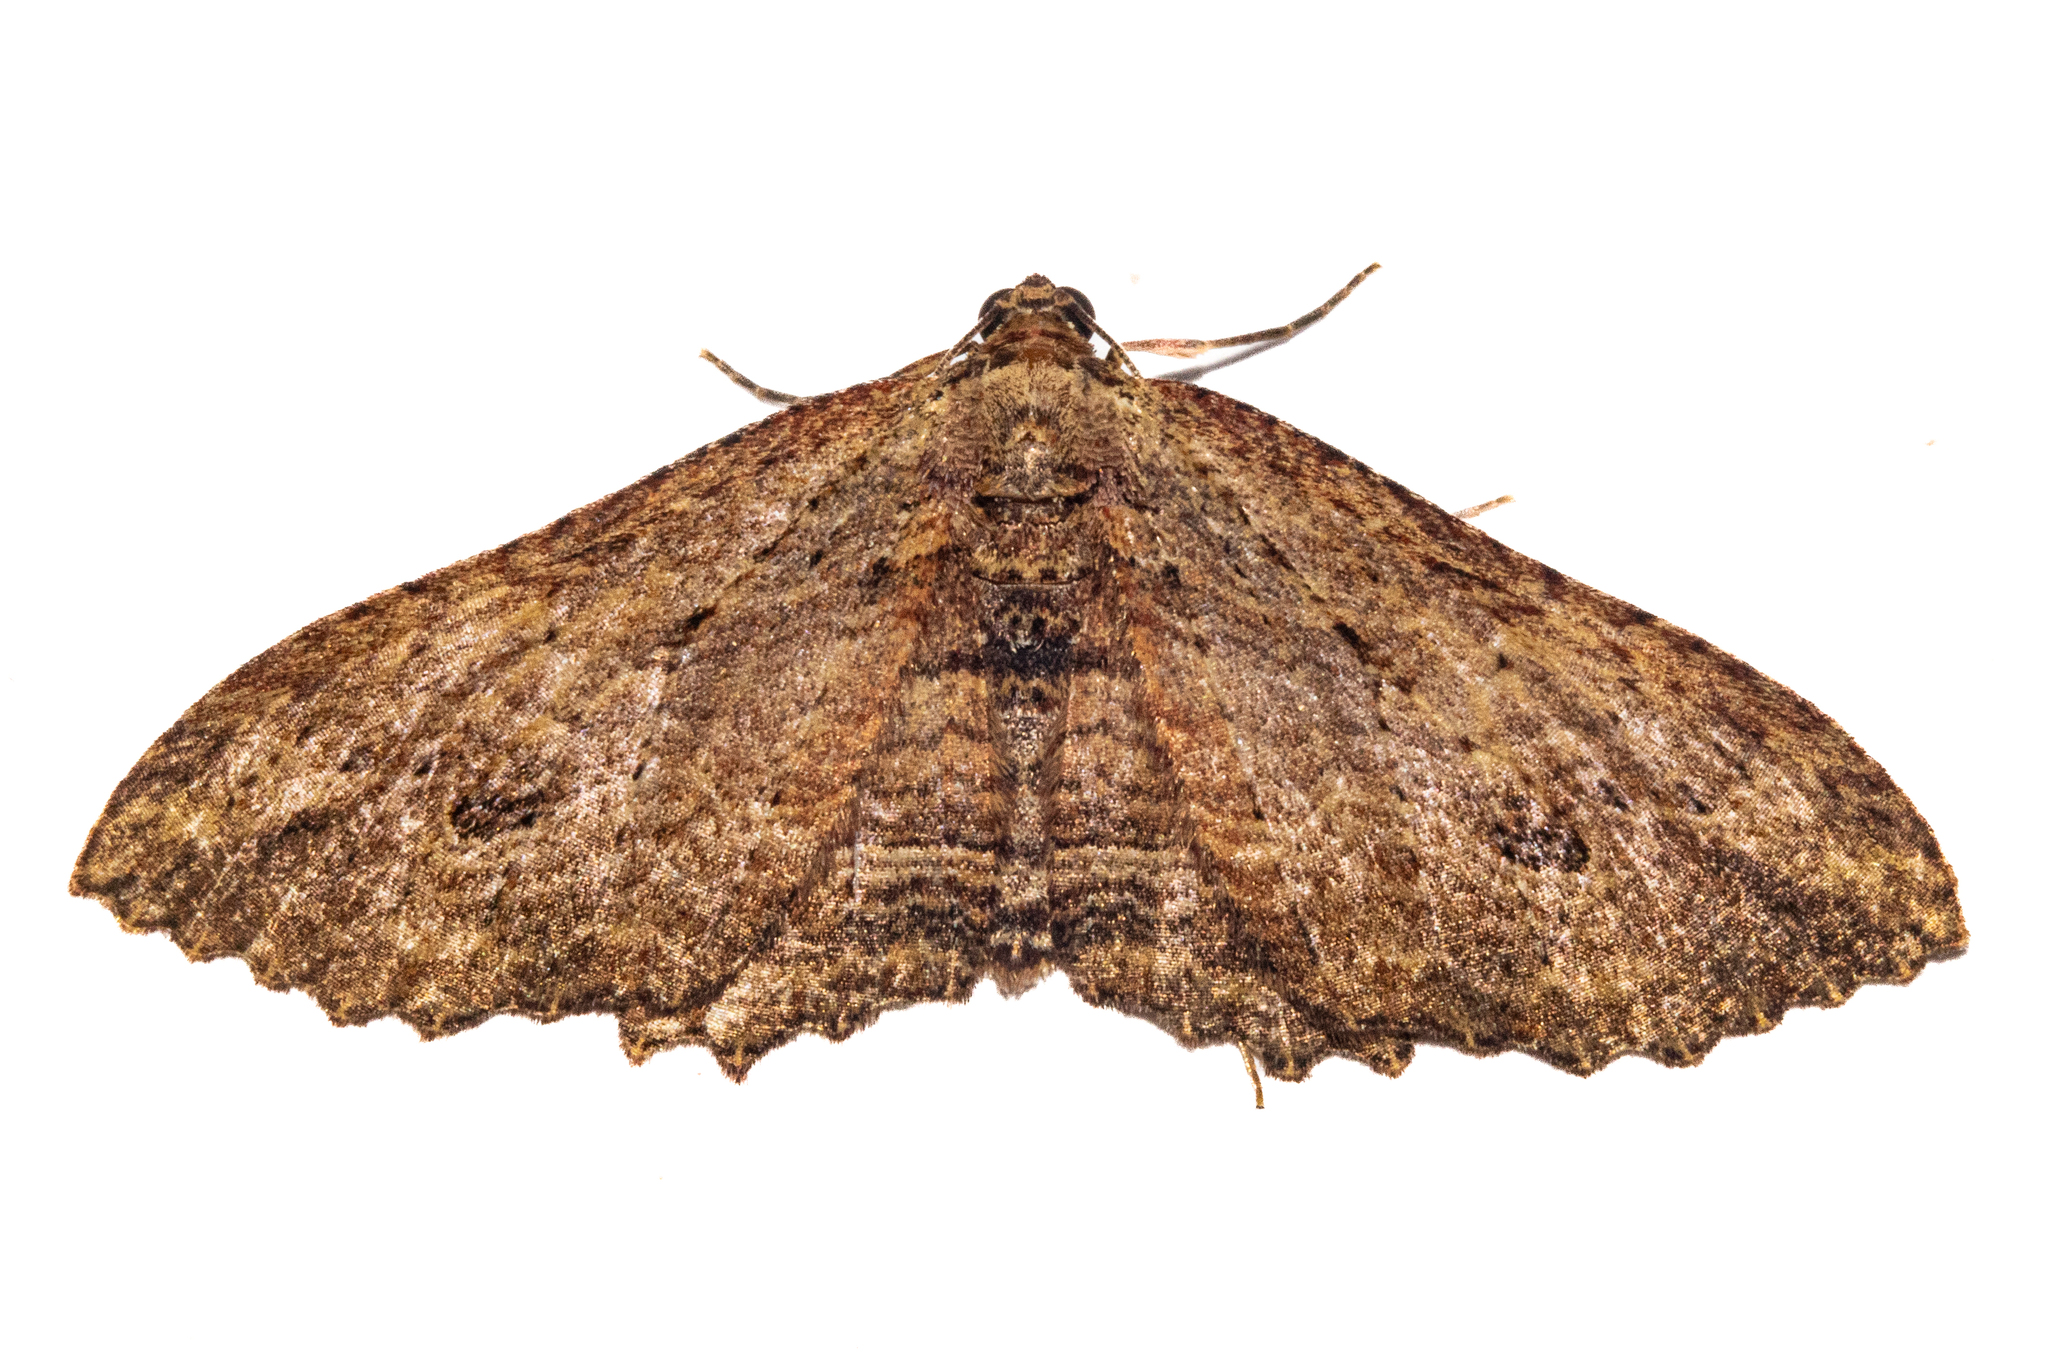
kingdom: Animalia
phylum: Arthropoda
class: Insecta
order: Lepidoptera
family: Geometridae
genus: Austrocidaria
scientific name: Austrocidaria bipartita
